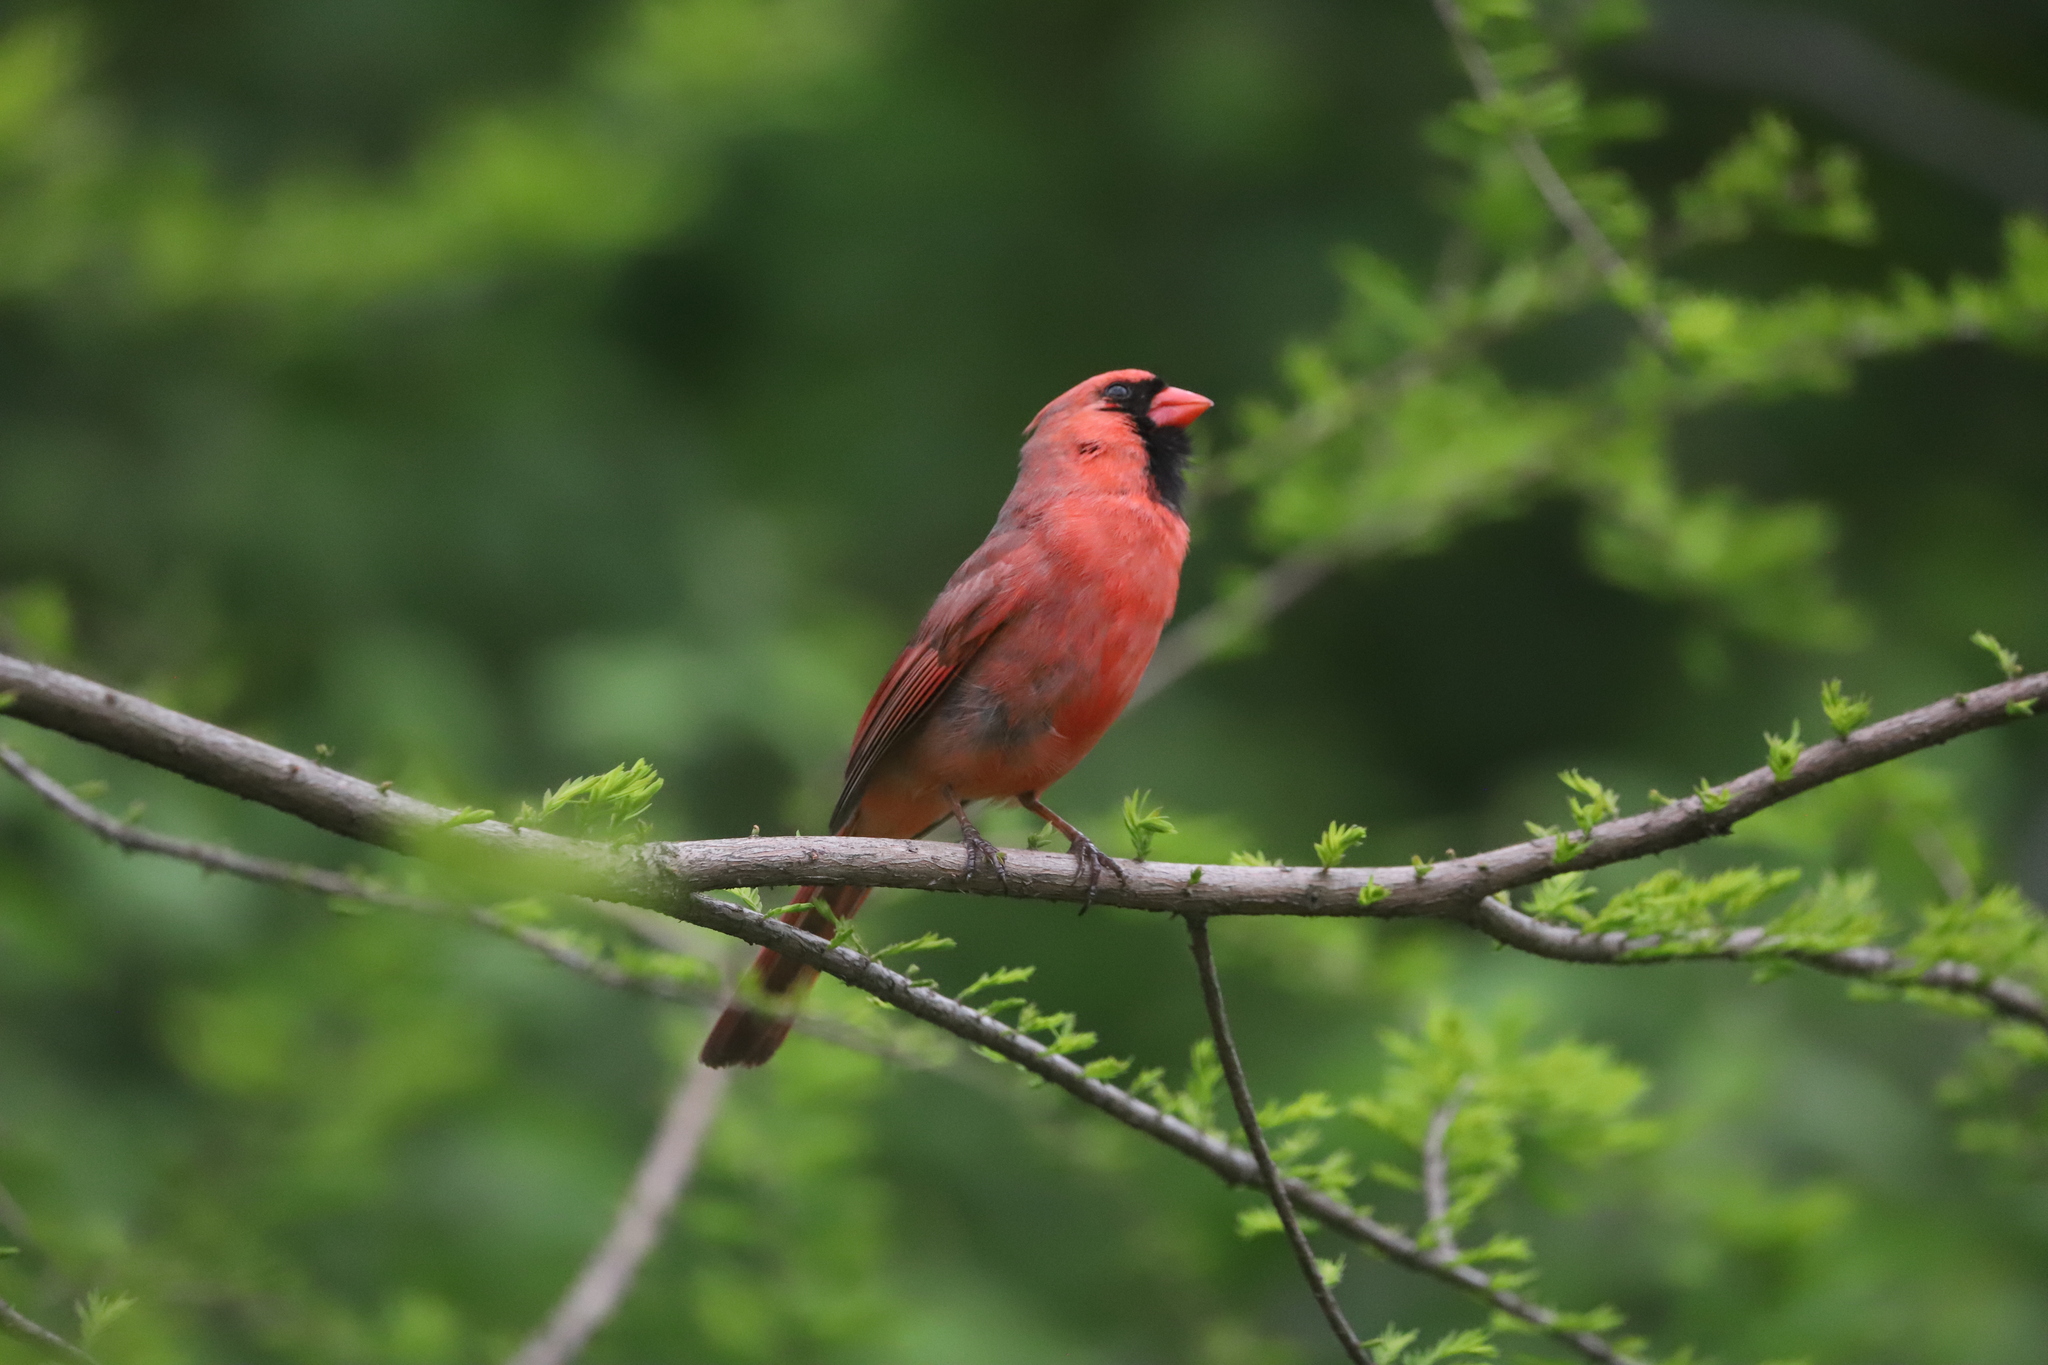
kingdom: Animalia
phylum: Chordata
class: Aves
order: Passeriformes
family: Cardinalidae
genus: Cardinalis
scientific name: Cardinalis cardinalis
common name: Northern cardinal
